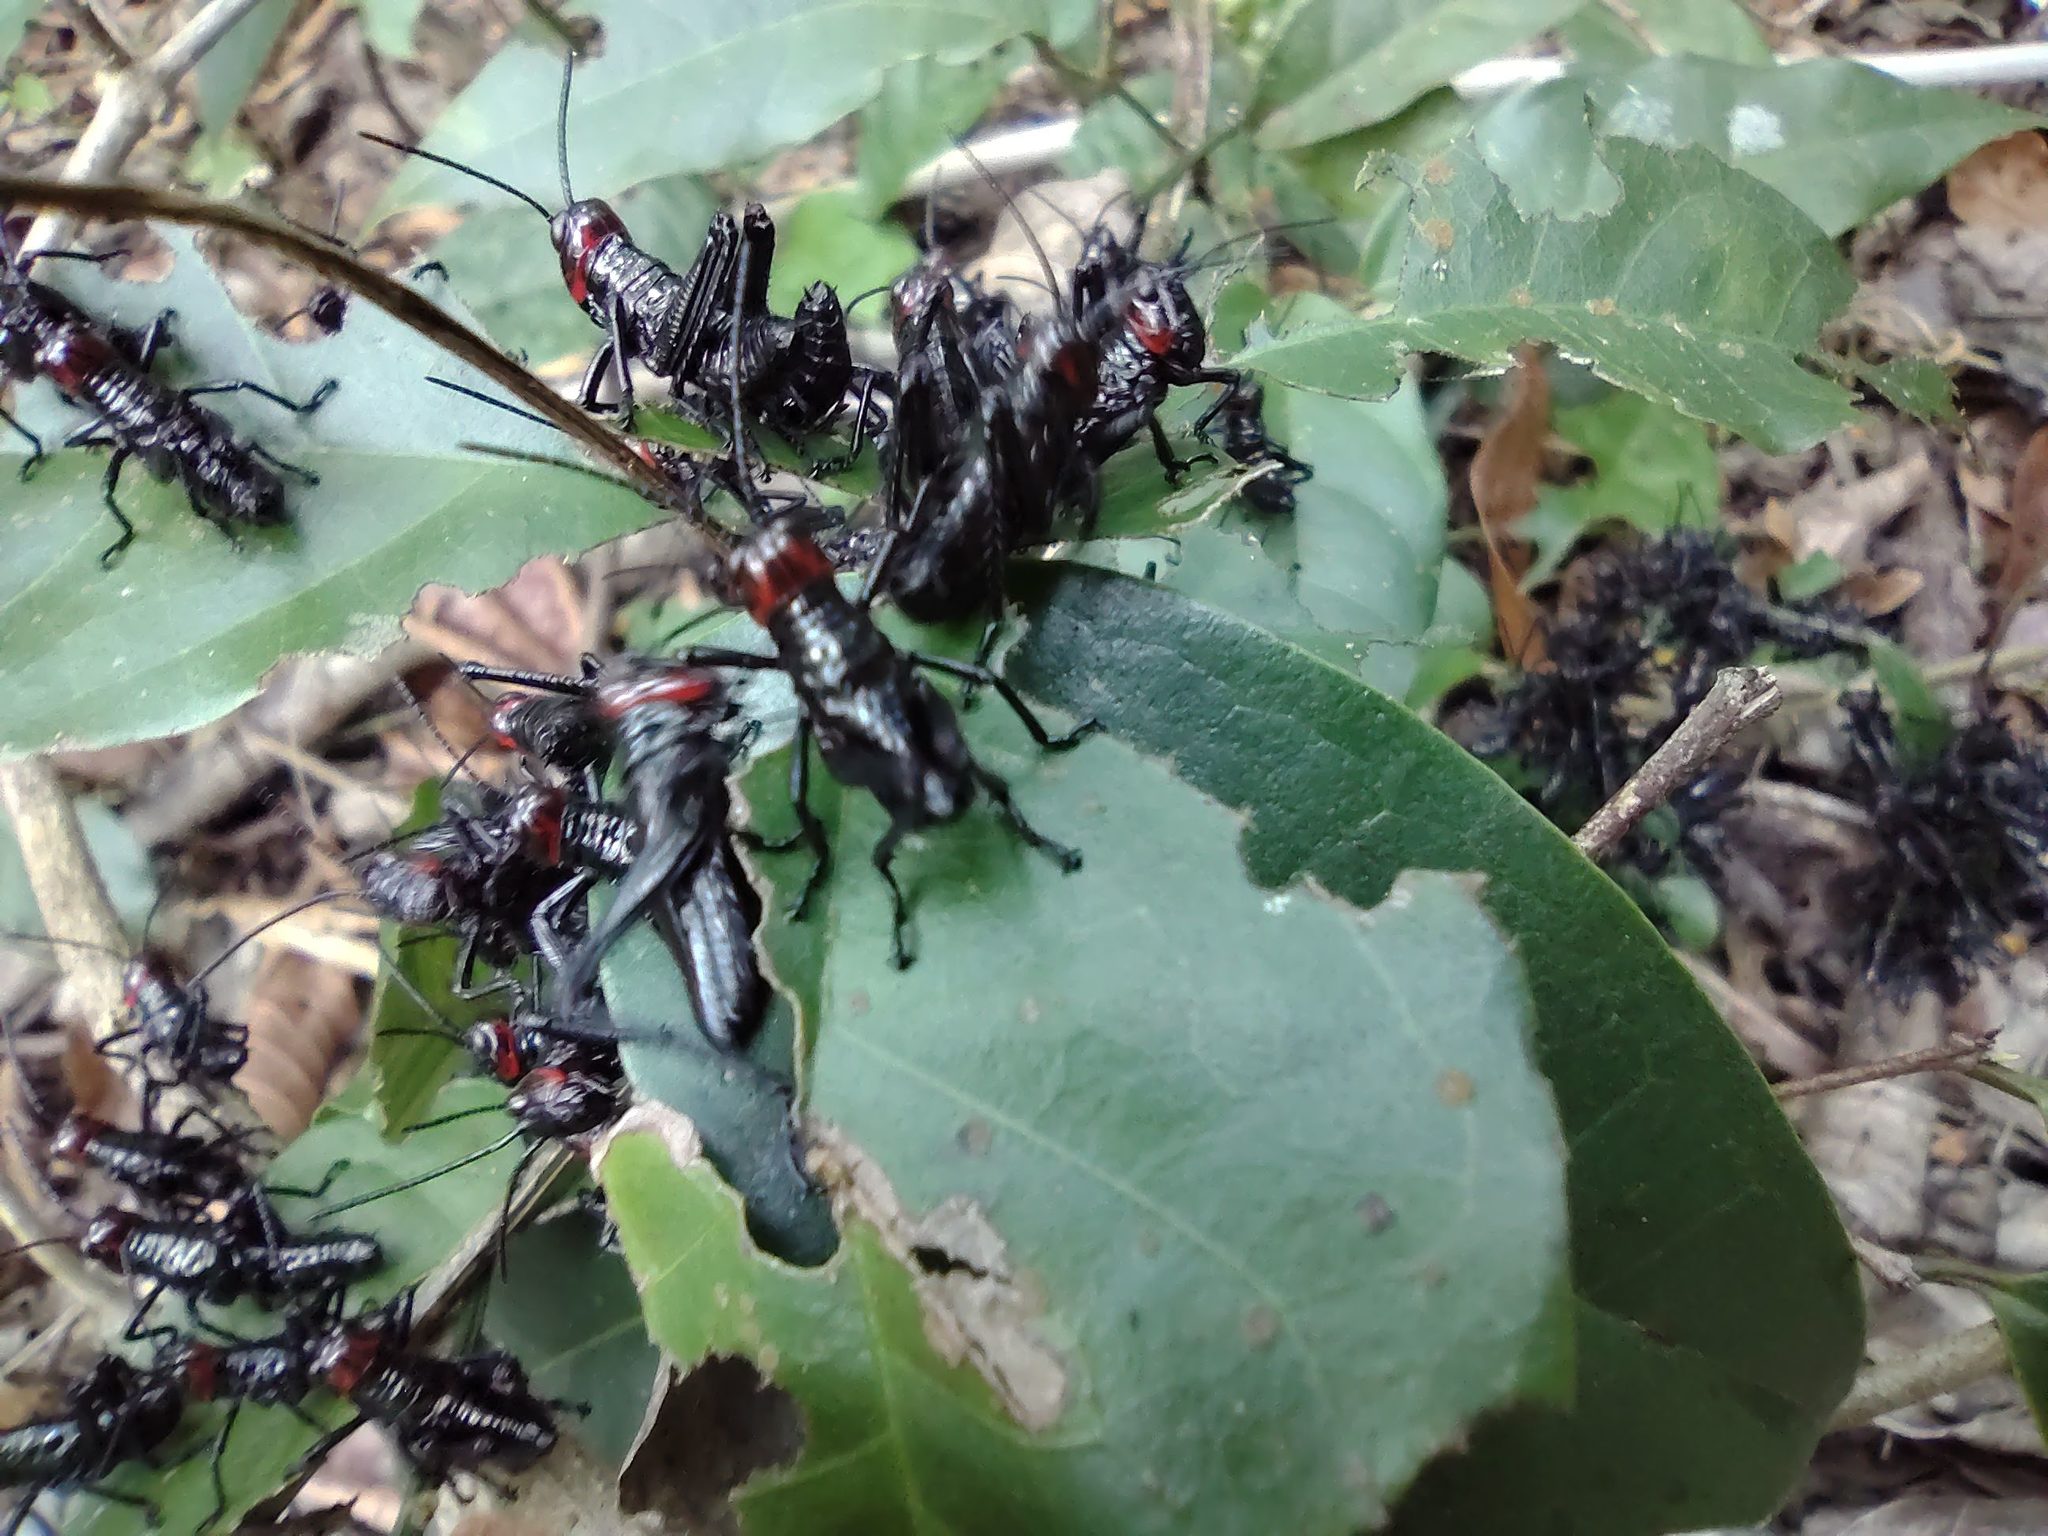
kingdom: Animalia
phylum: Arthropoda
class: Insecta
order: Orthoptera
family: Romaleidae
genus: Chromacris
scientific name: Chromacris miles
